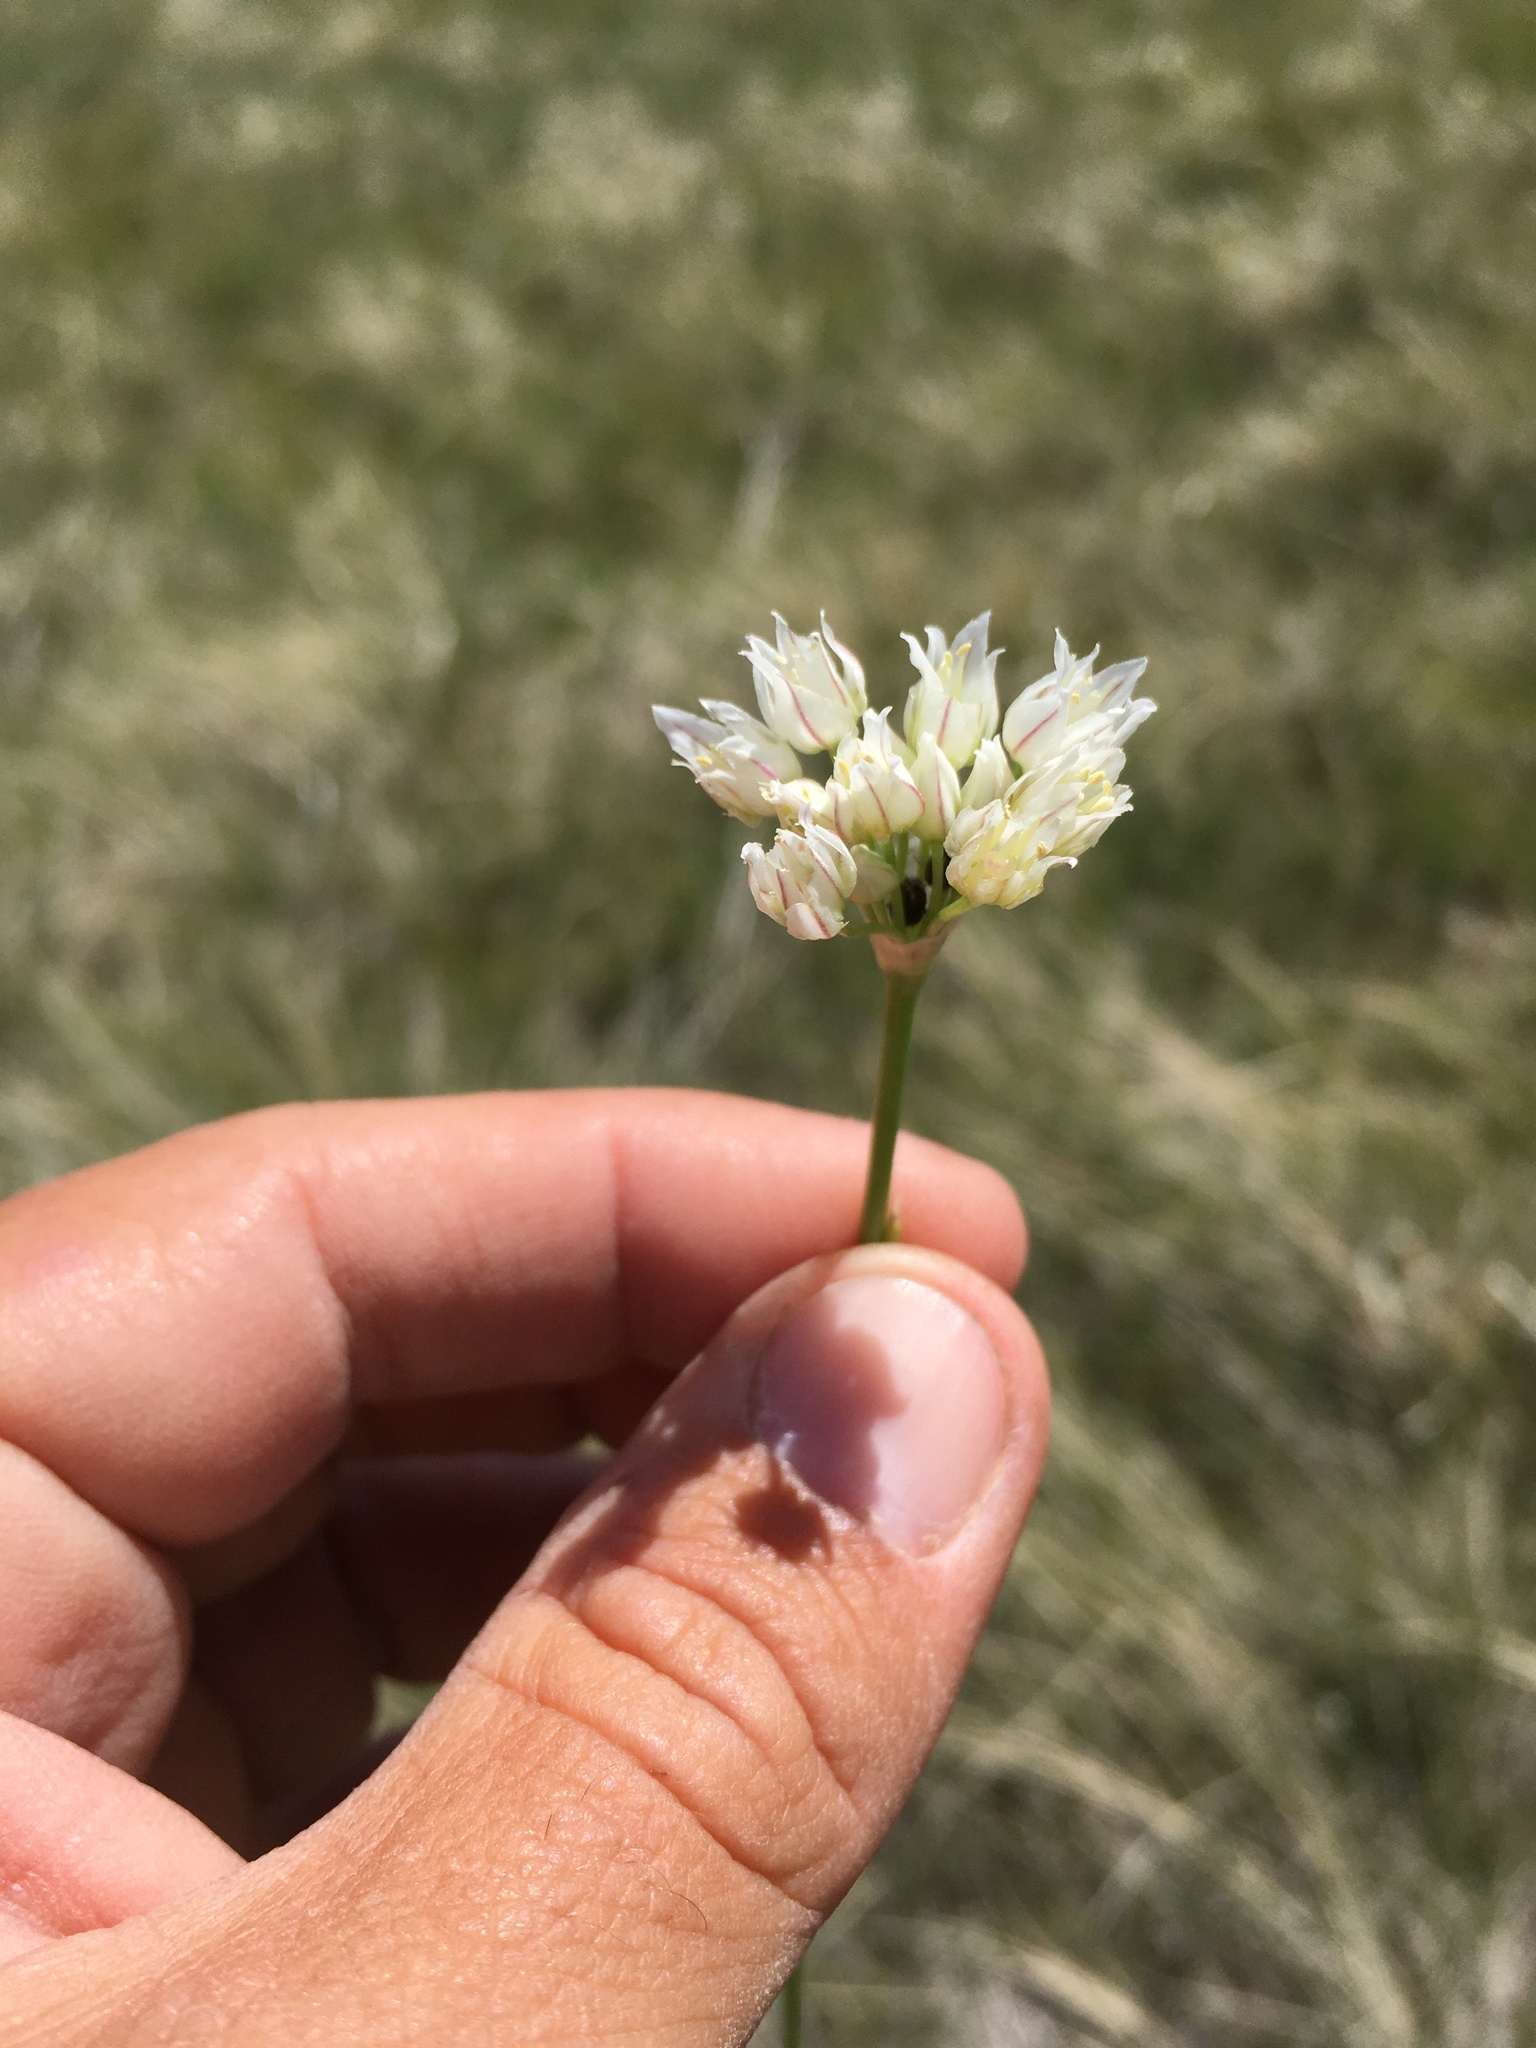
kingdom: Plantae
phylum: Tracheophyta
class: Liliopsida
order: Asparagales
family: Amaryllidaceae
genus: Allium
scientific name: Allium textile
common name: Prairie onion
